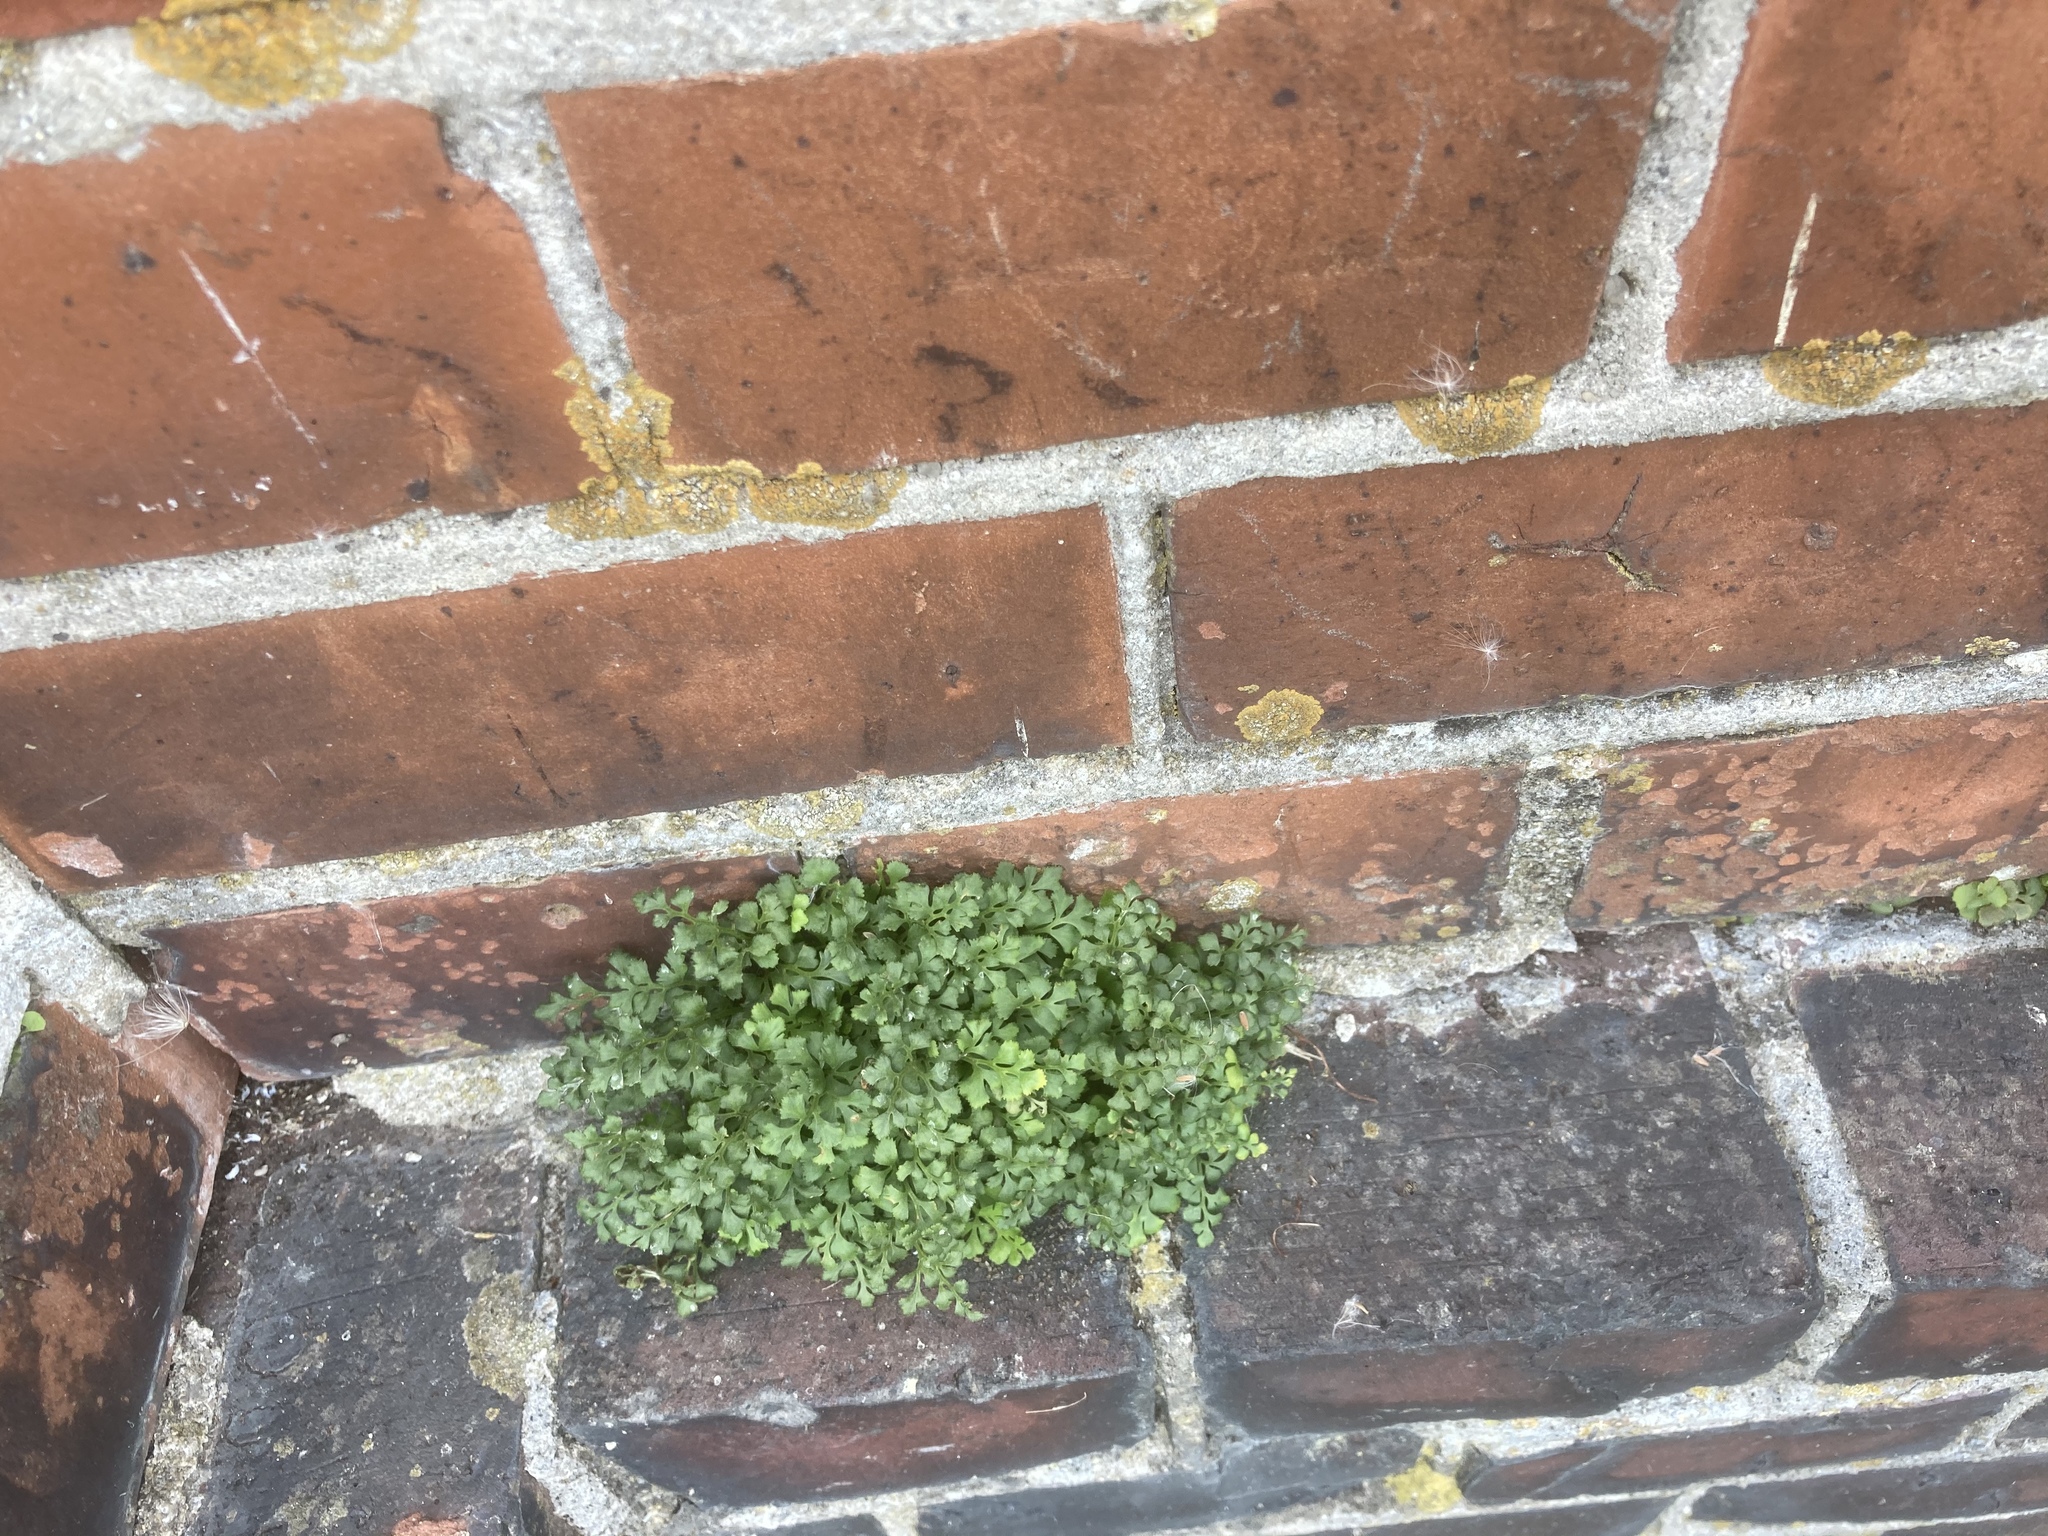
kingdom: Plantae
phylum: Tracheophyta
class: Polypodiopsida
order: Polypodiales
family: Aspleniaceae
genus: Asplenium
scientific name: Asplenium ruta-muraria
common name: Wall-rue
